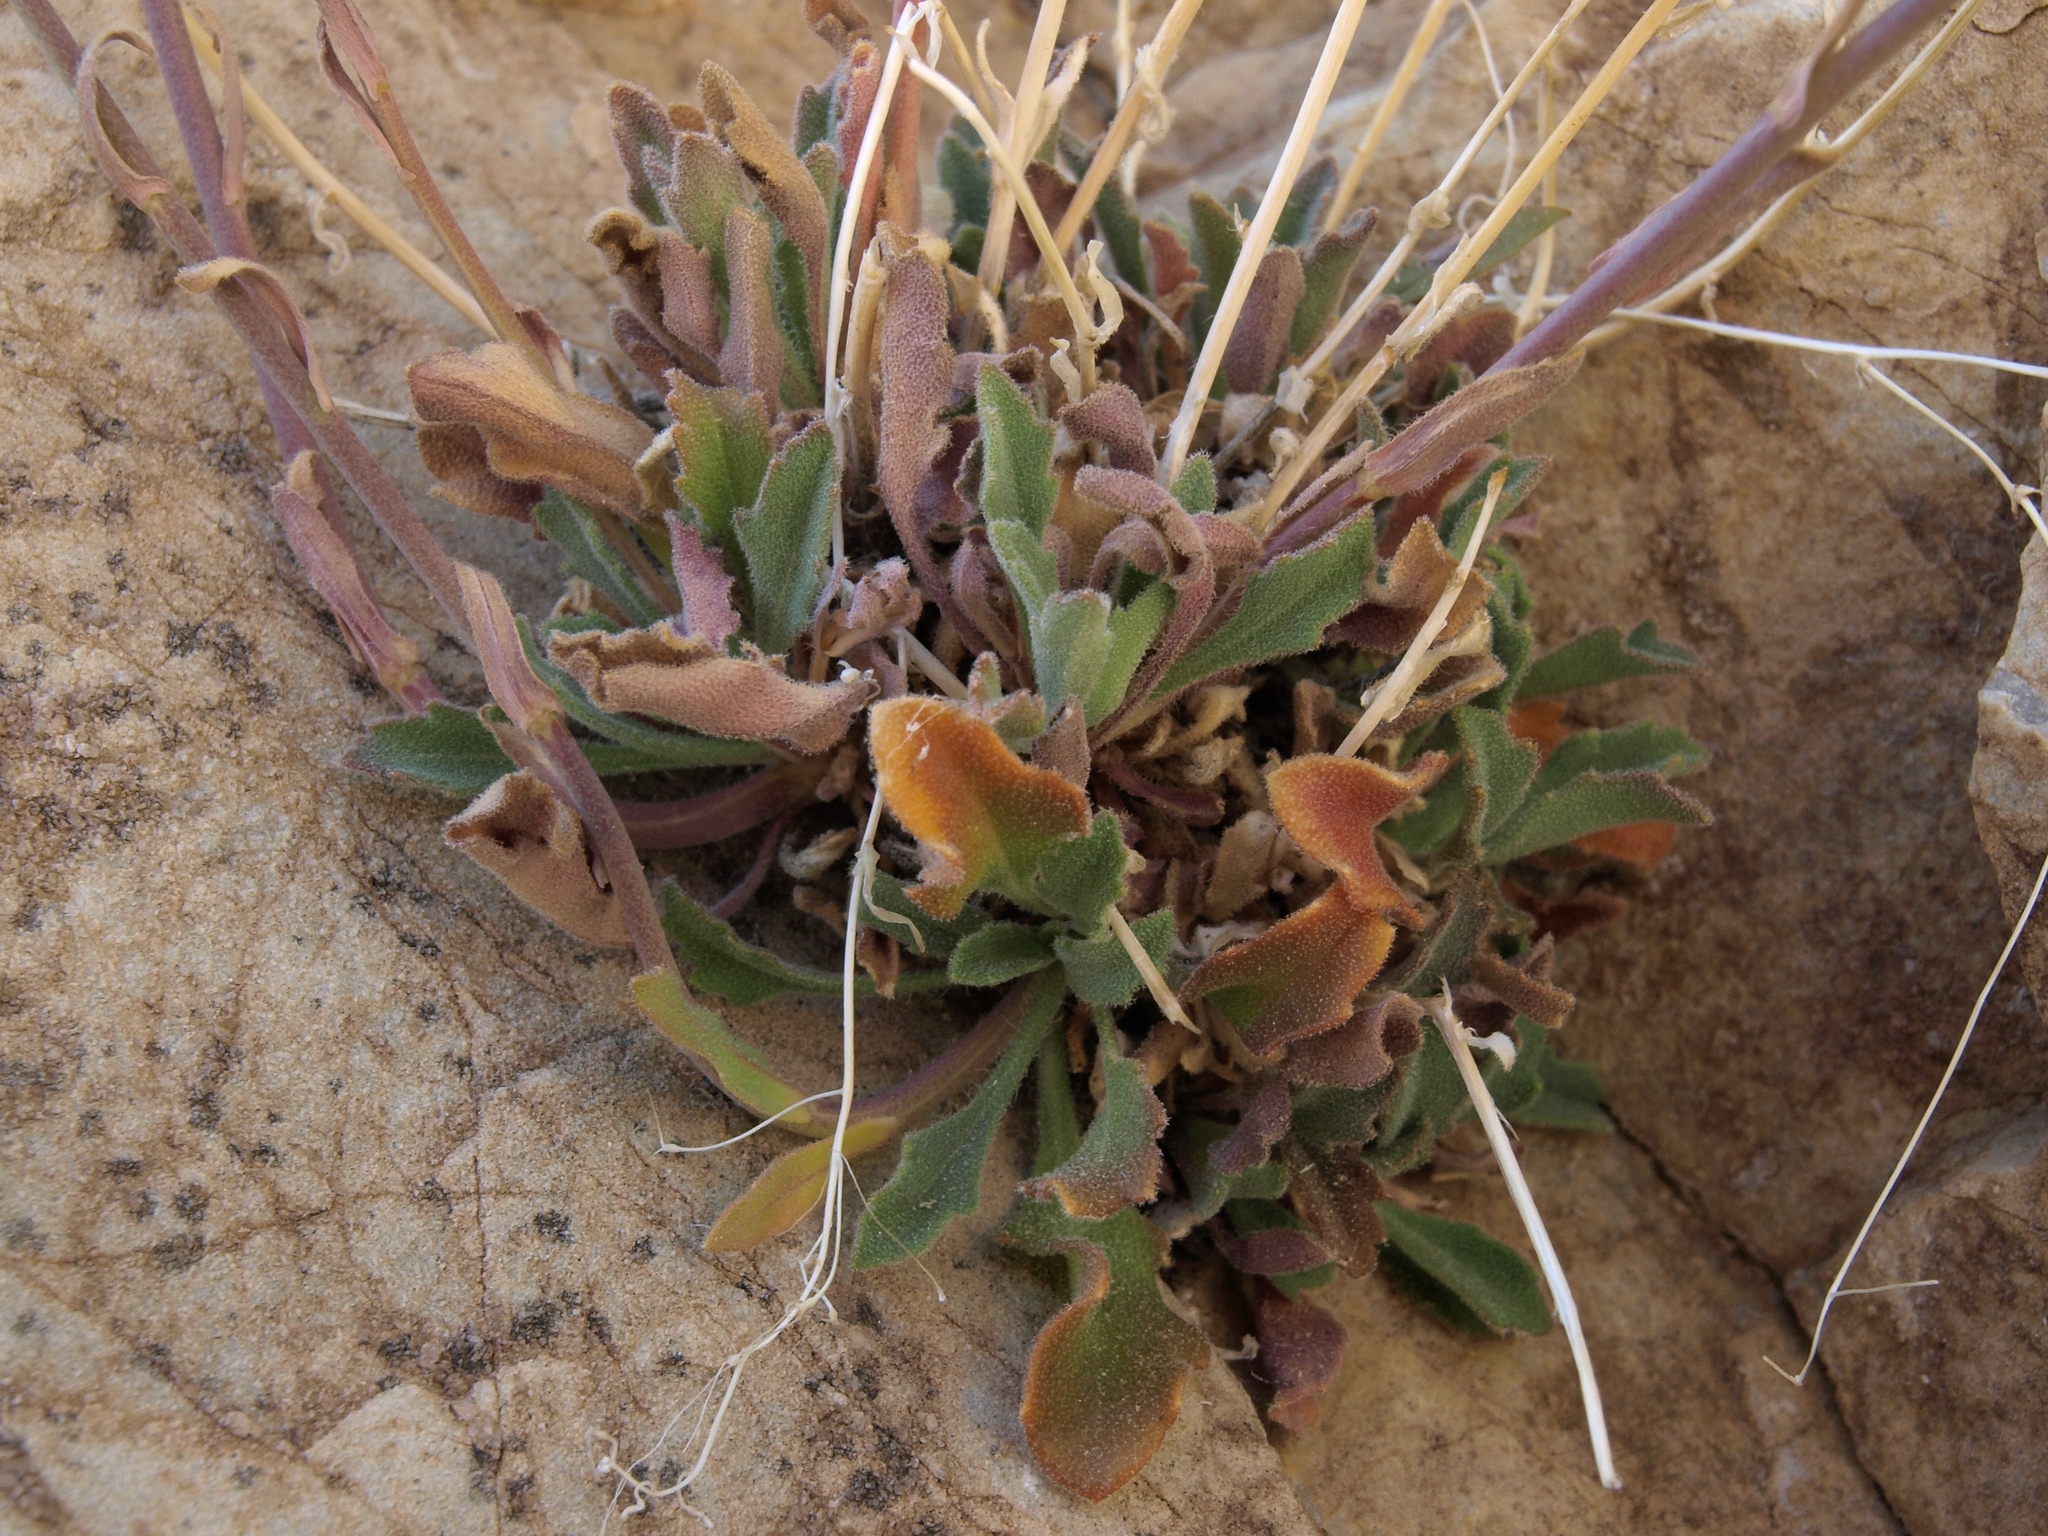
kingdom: Plantae
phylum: Tracheophyta
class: Magnoliopsida
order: Brassicales
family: Brassicaceae
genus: Boechera
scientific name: Boechera perennans
